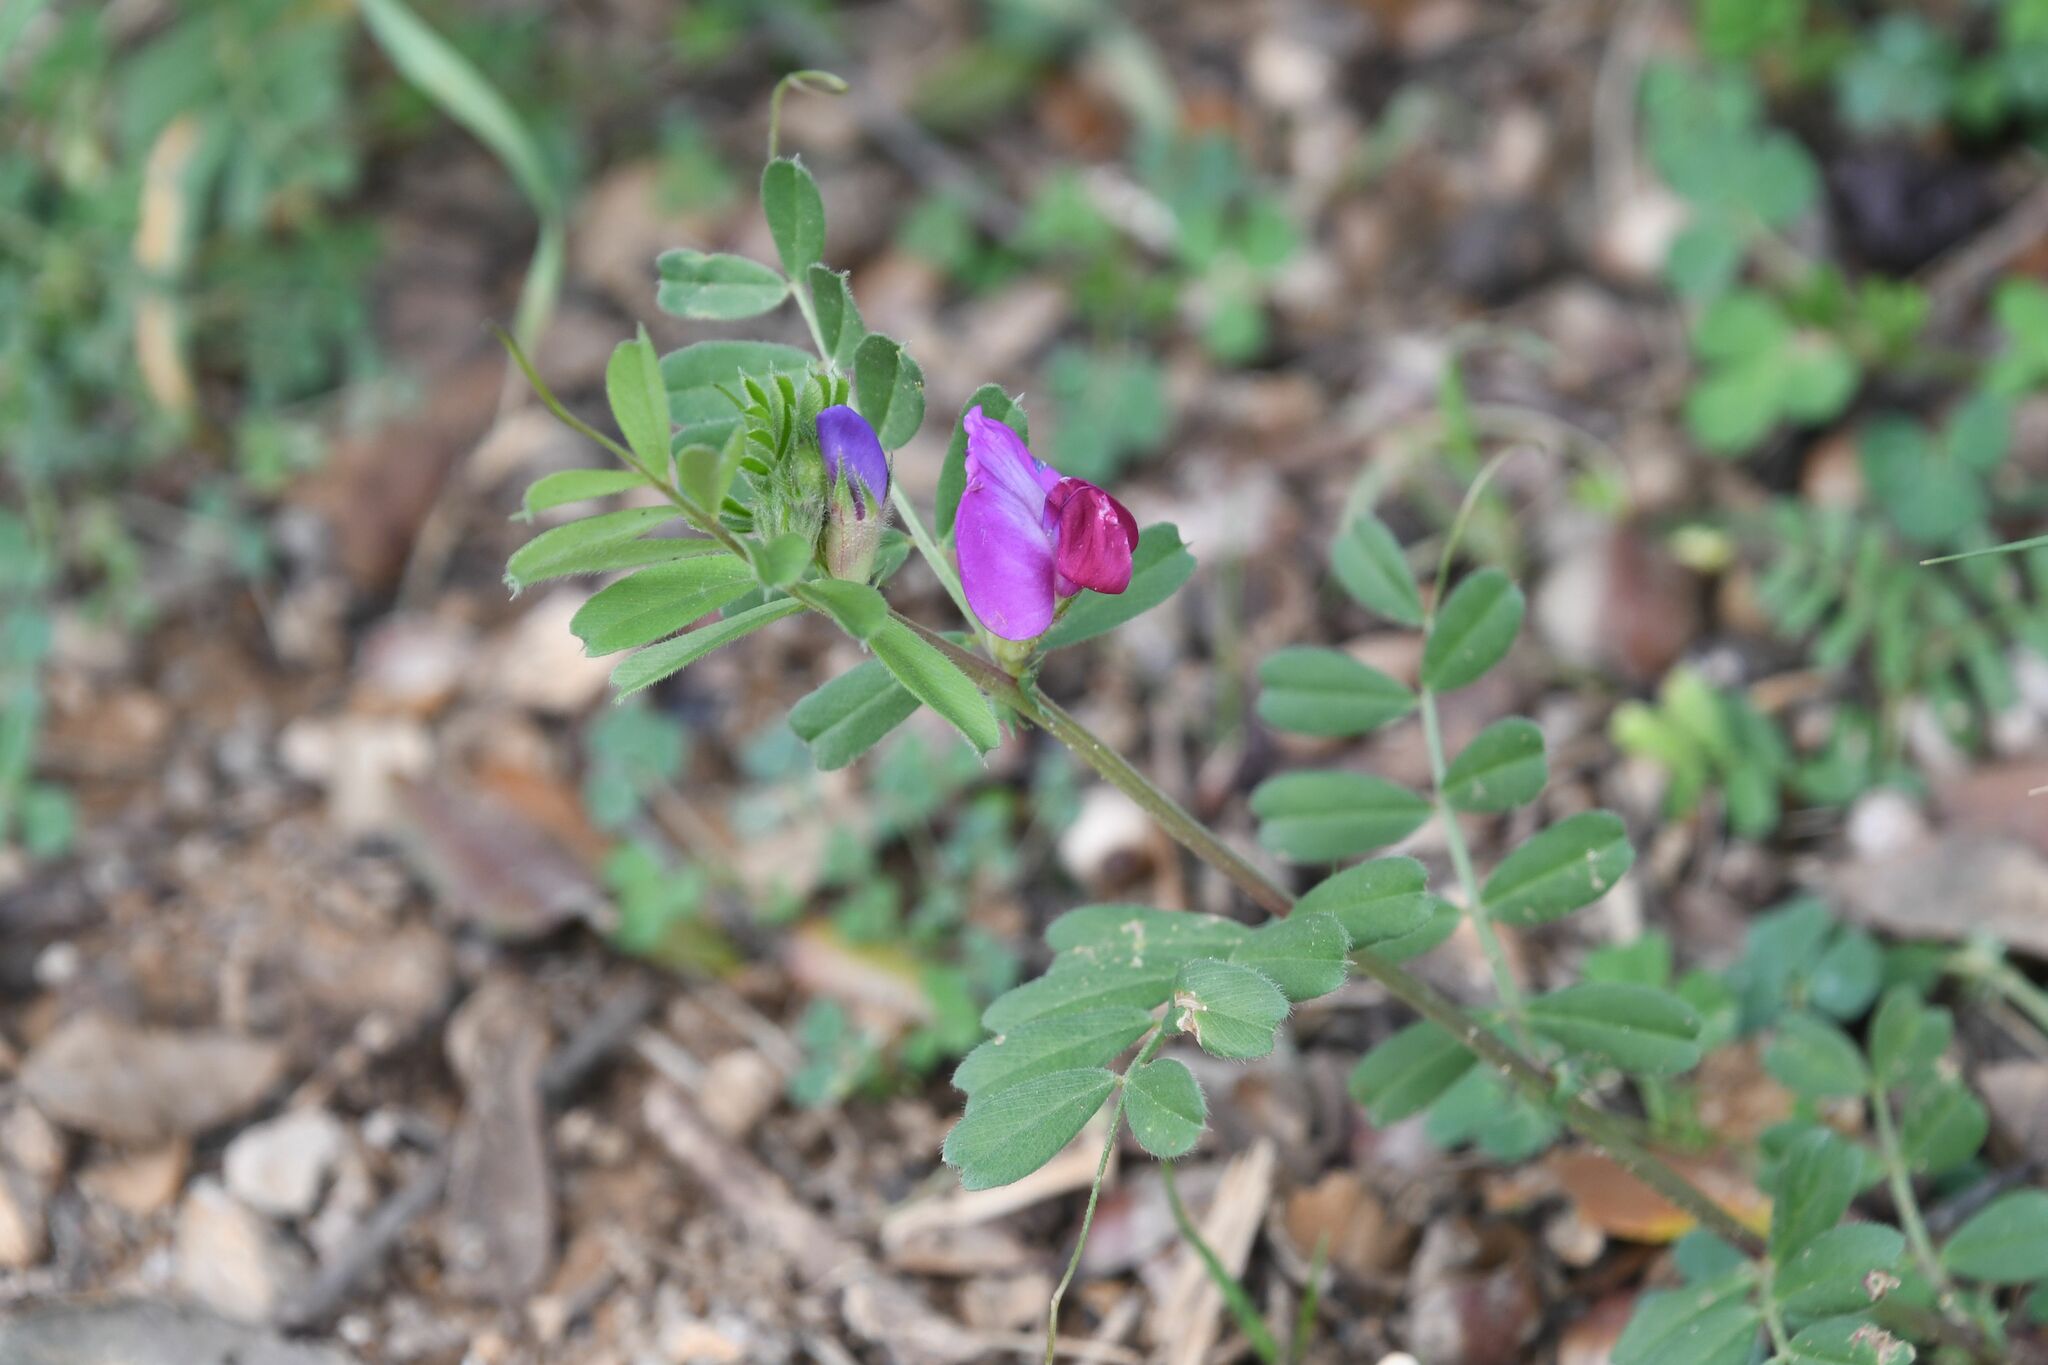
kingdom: Plantae
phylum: Tracheophyta
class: Magnoliopsida
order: Fabales
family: Fabaceae
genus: Vicia
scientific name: Vicia sativa
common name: Garden vetch
